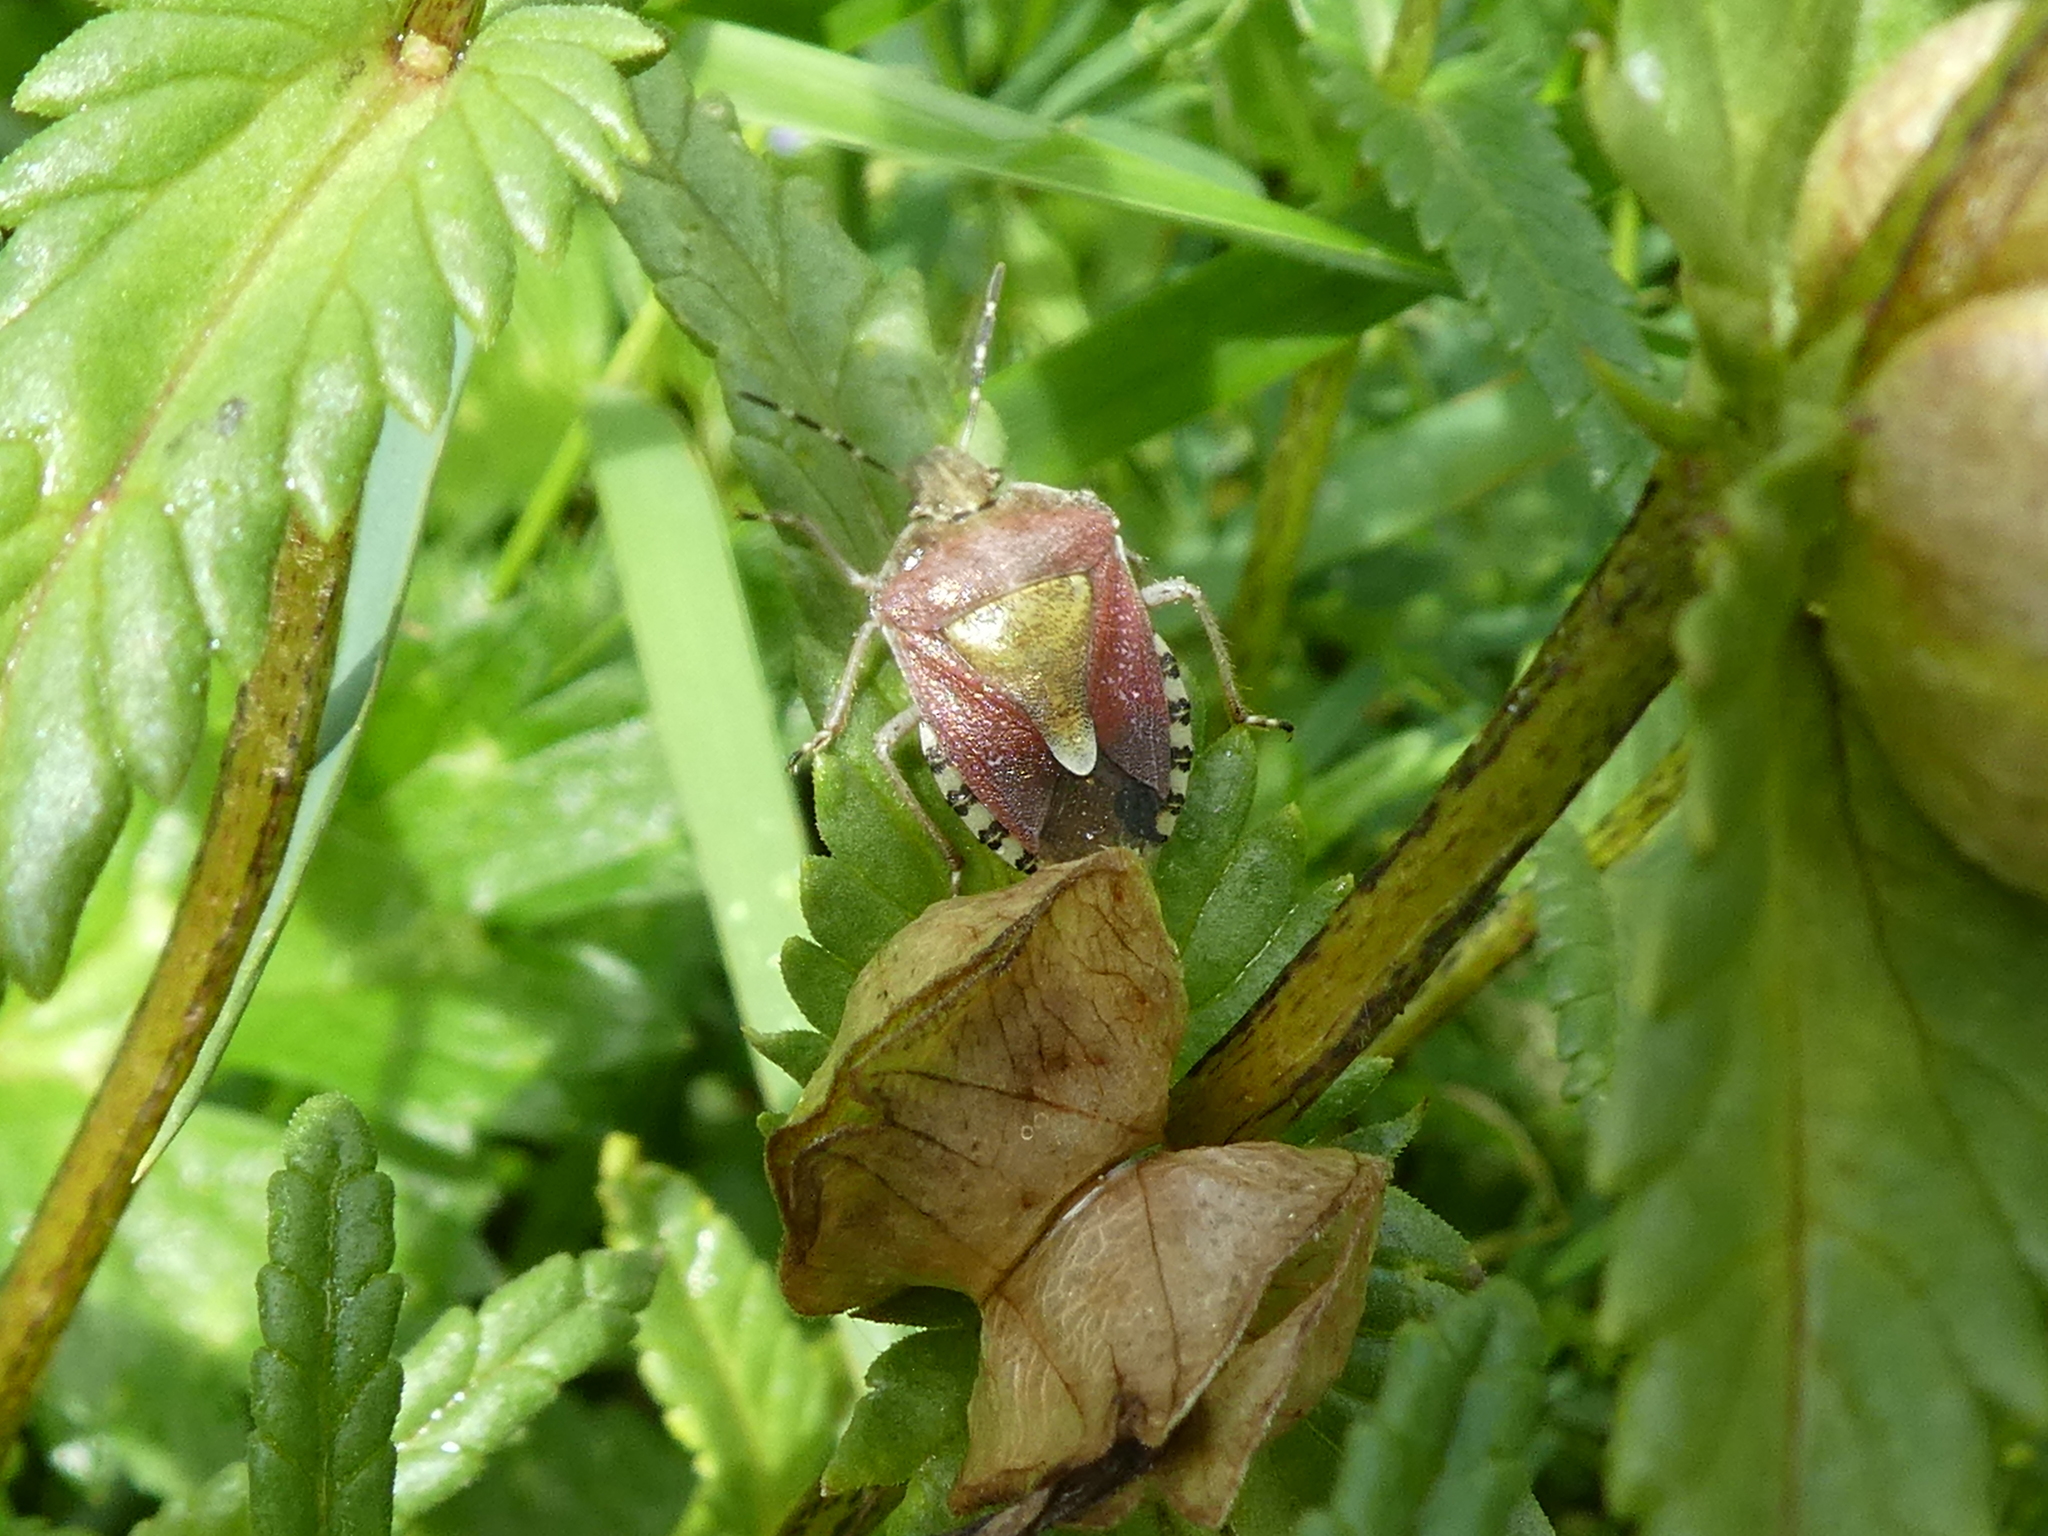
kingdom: Animalia
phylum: Arthropoda
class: Insecta
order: Hemiptera
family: Pentatomidae
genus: Dolycoris
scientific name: Dolycoris baccarum
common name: Sloe bug
